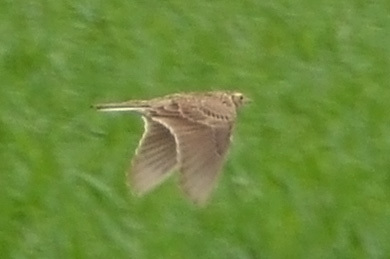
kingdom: Animalia
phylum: Chordata
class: Aves
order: Passeriformes
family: Alaudidae
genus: Alauda
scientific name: Alauda arvensis
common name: Eurasian skylark
